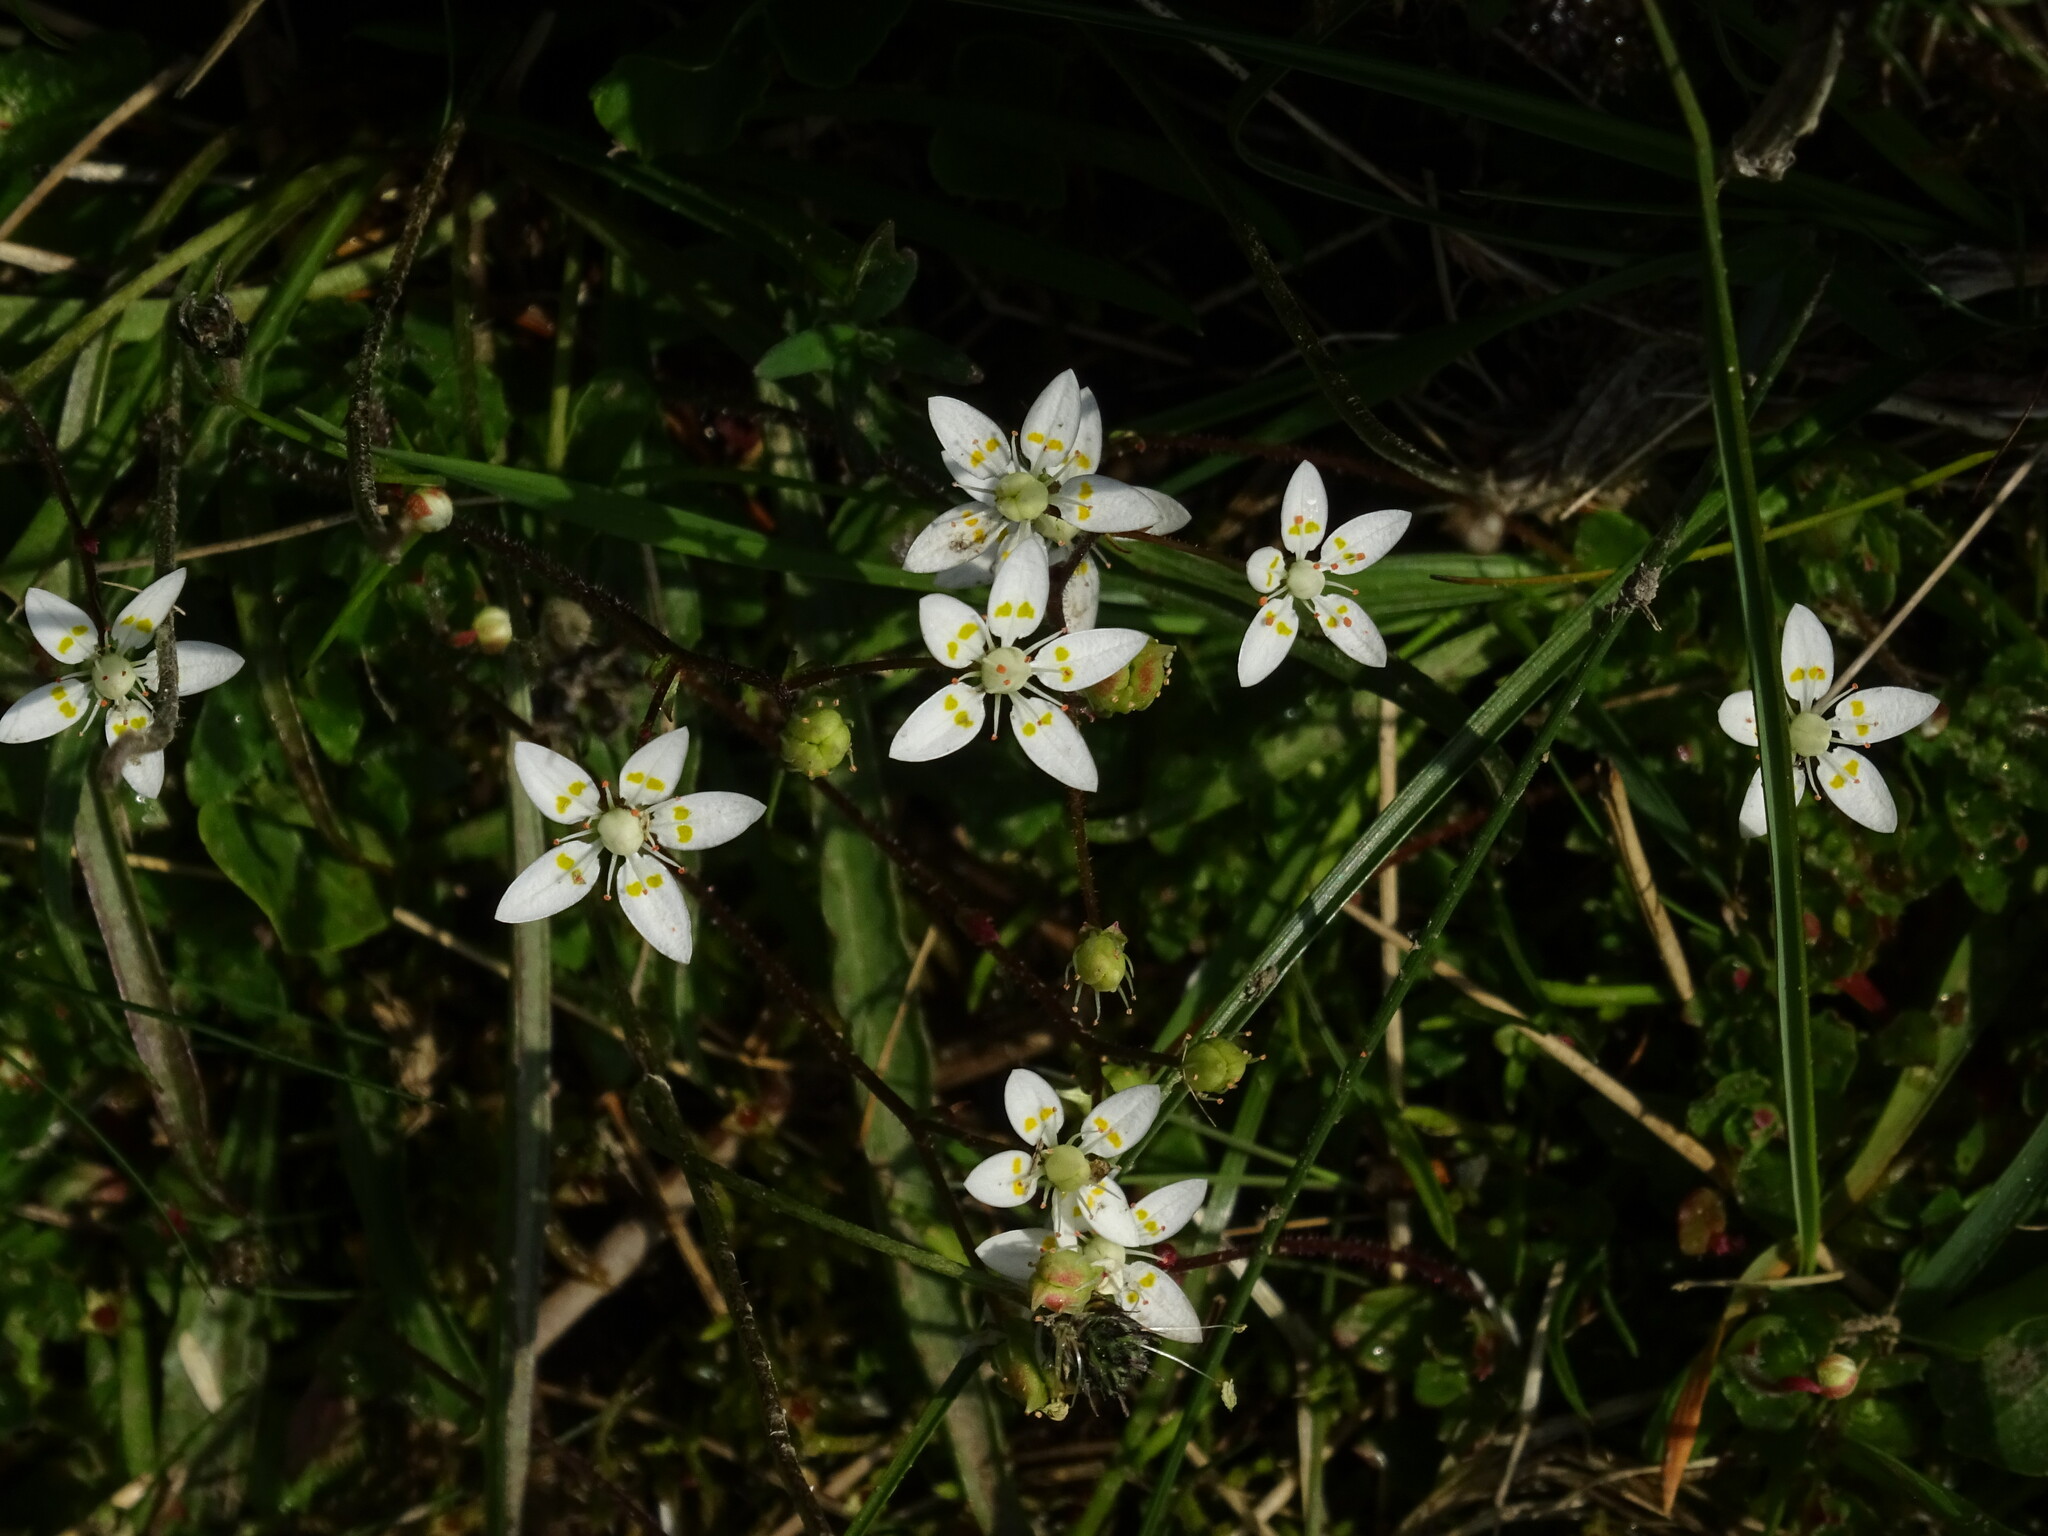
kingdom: Plantae
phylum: Tracheophyta
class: Magnoliopsida
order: Saxifragales
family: Saxifragaceae
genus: Micranthes
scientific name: Micranthes stellaris
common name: Starry saxifrage
